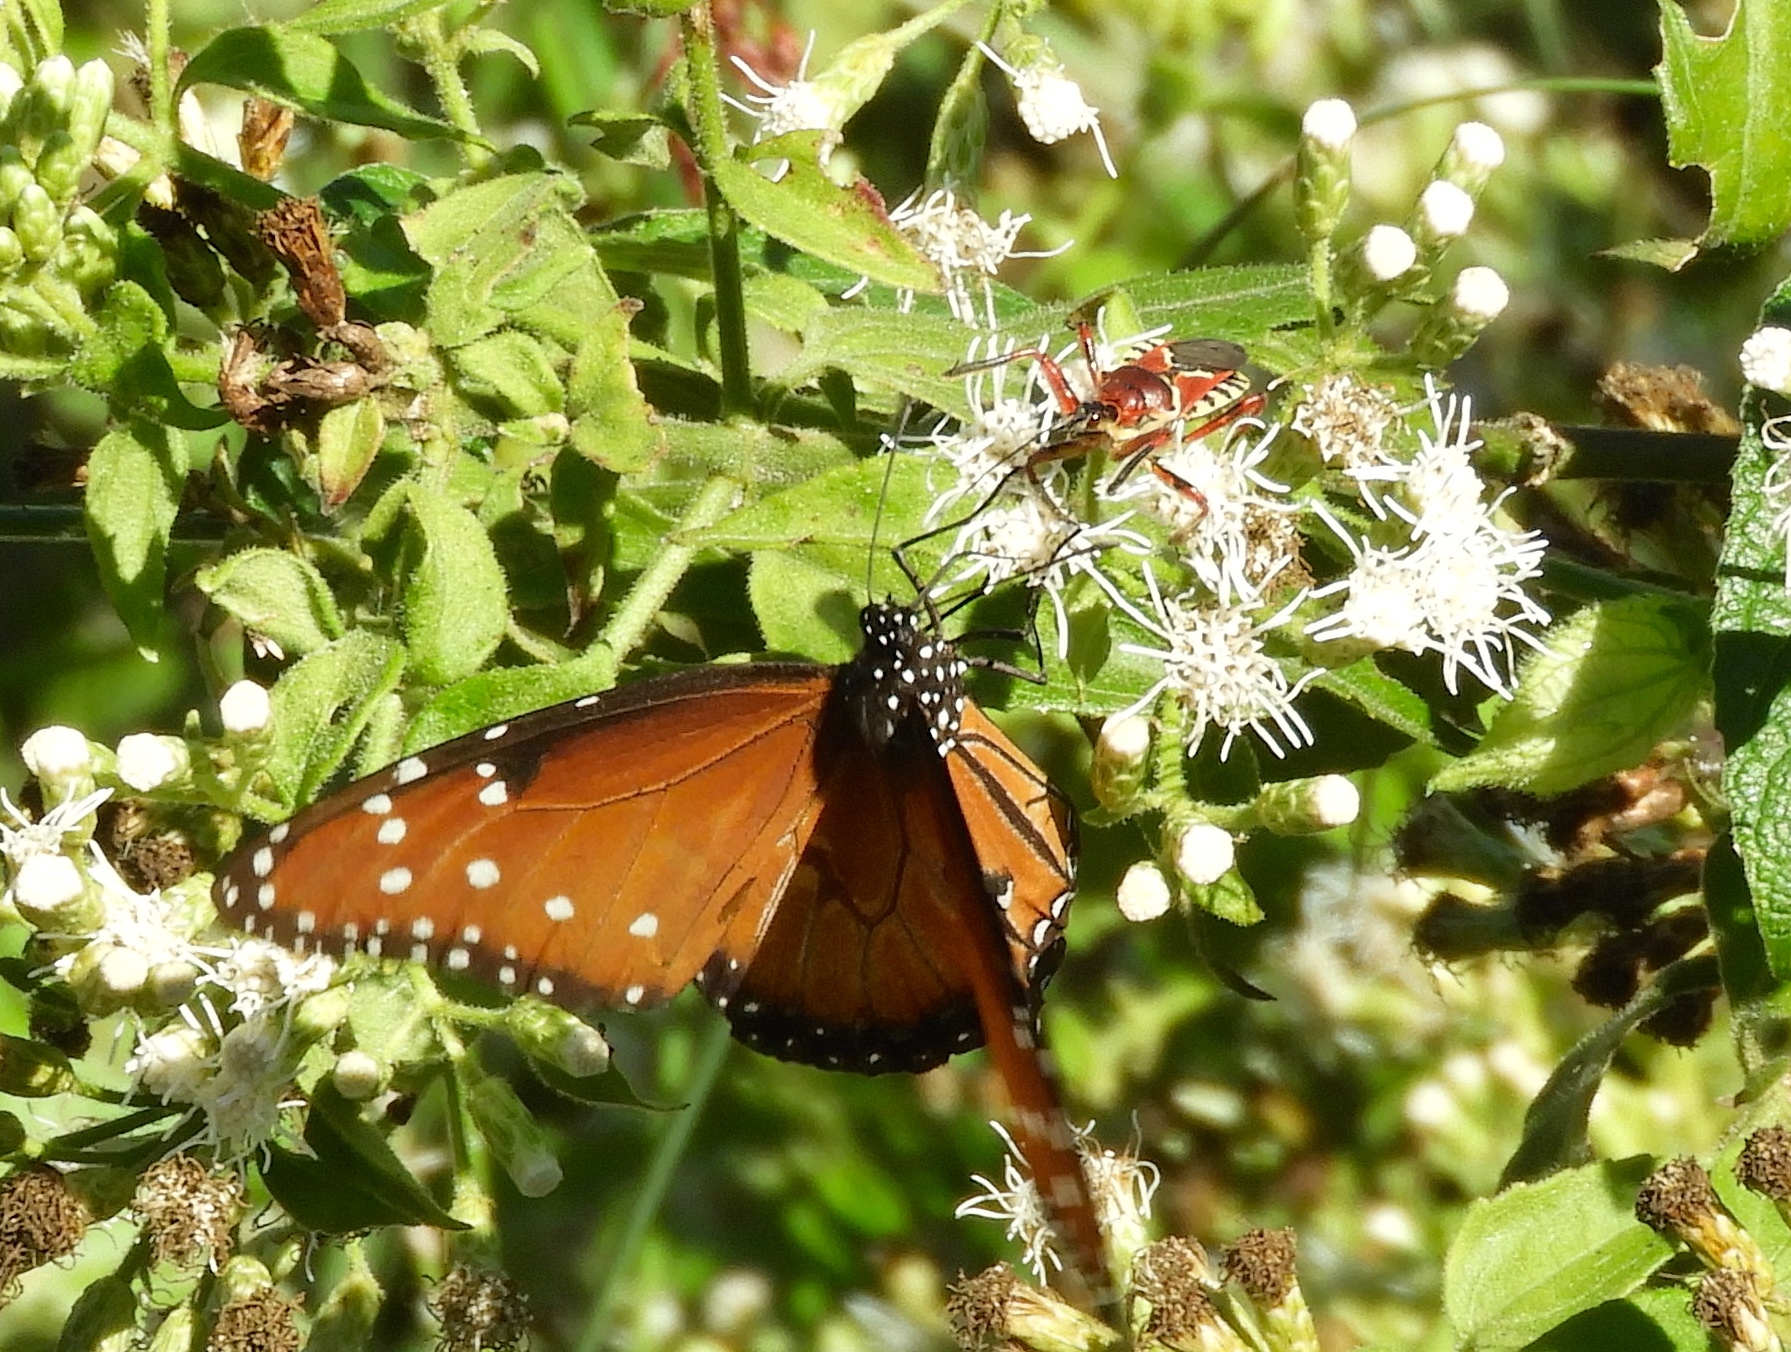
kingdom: Animalia
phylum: Arthropoda
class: Insecta
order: Lepidoptera
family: Nymphalidae
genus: Danaus
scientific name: Danaus gilippus
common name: Queen
